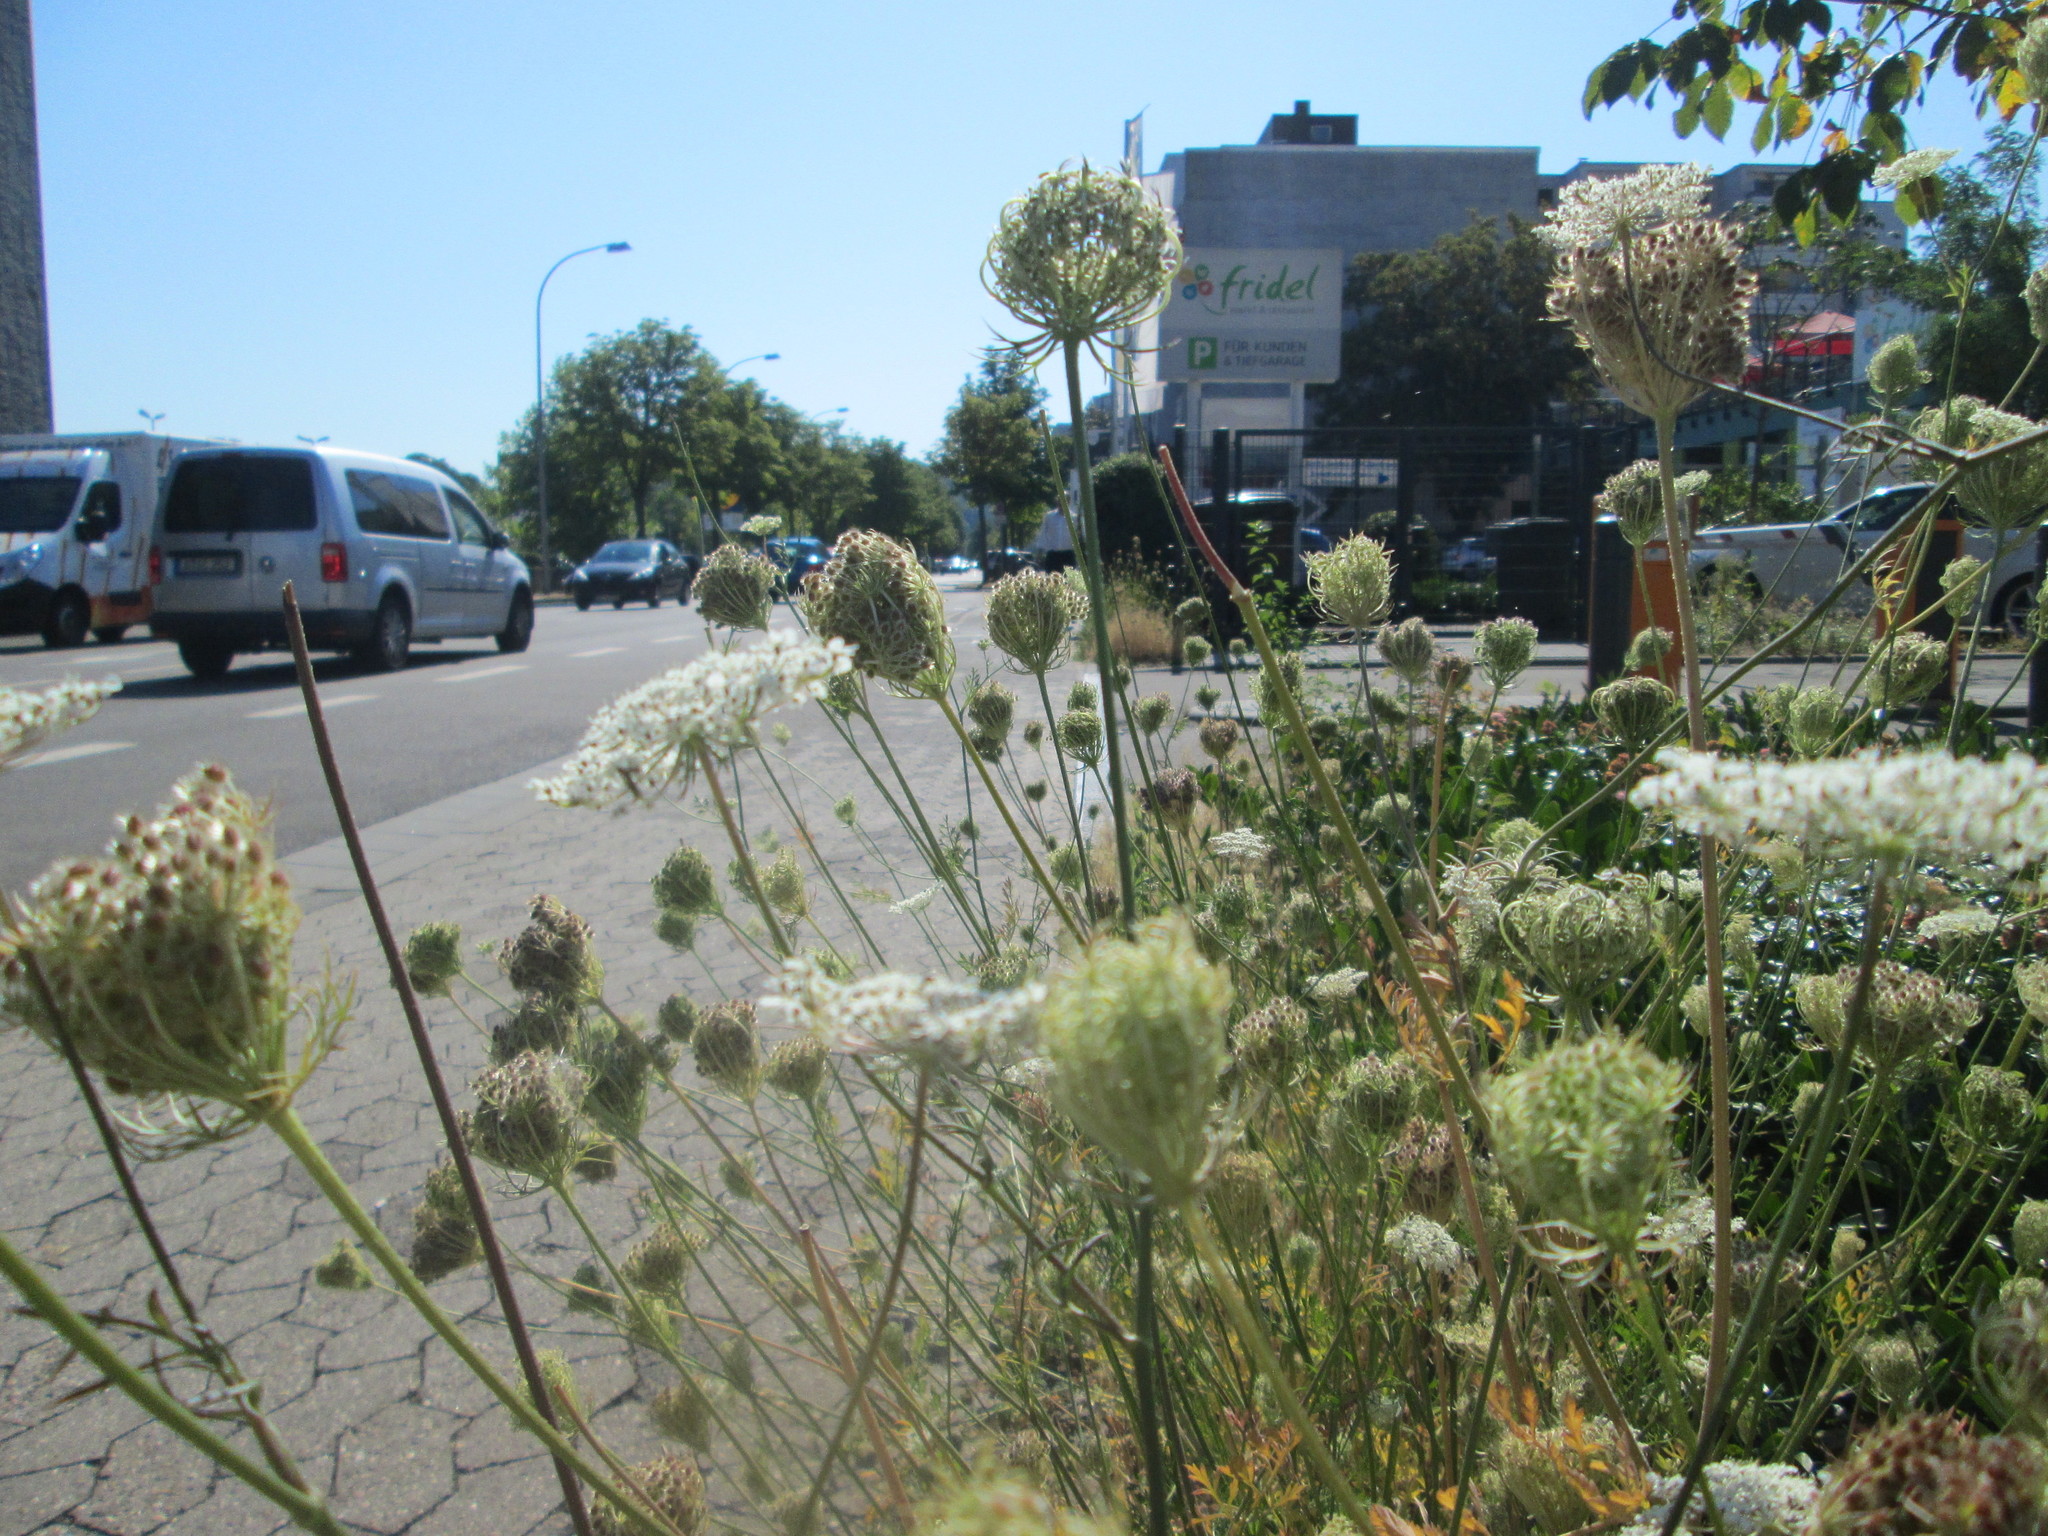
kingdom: Plantae
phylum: Tracheophyta
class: Magnoliopsida
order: Apiales
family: Apiaceae
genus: Daucus
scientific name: Daucus carota
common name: Wild carrot
